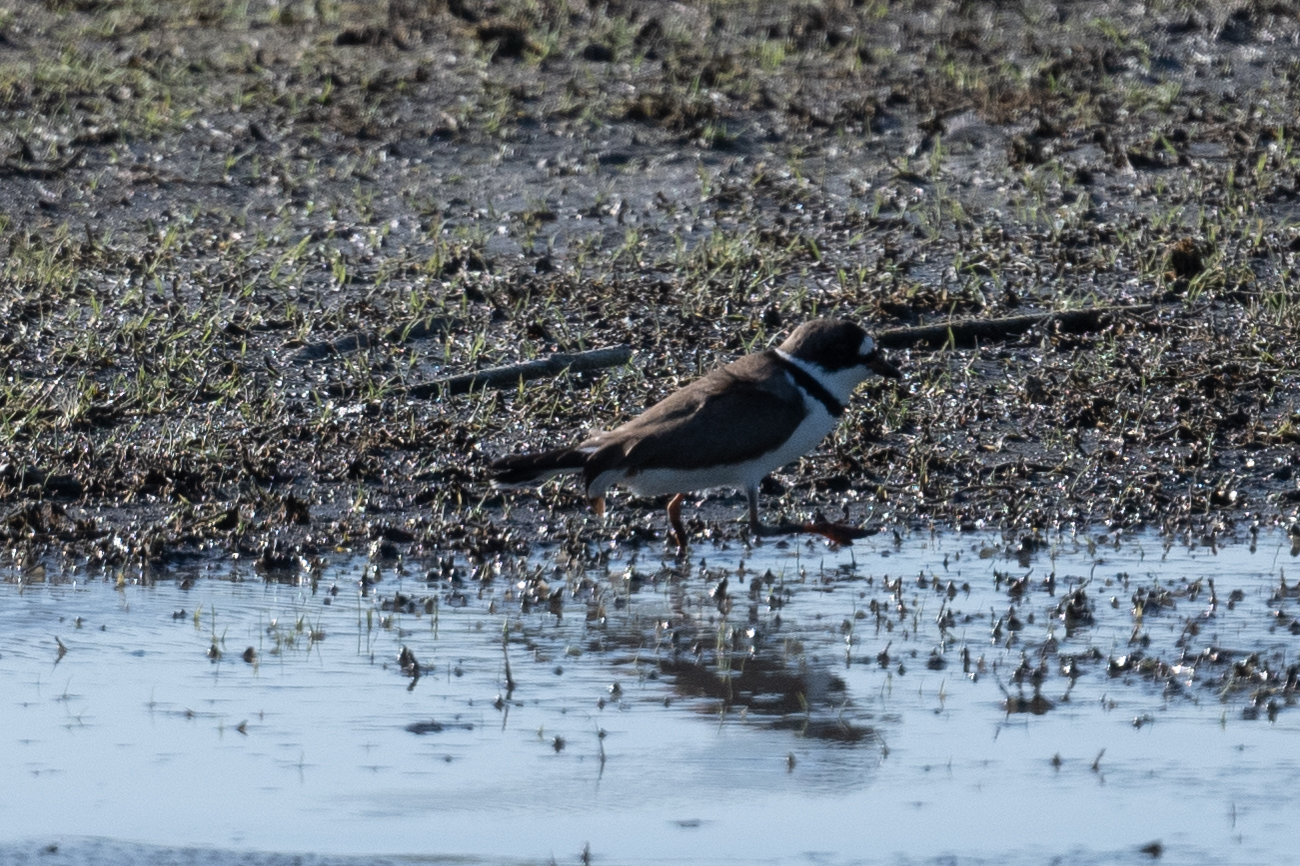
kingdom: Animalia
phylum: Chordata
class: Aves
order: Charadriiformes
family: Charadriidae
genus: Charadrius
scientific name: Charadrius semipalmatus
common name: Semipalmated plover
